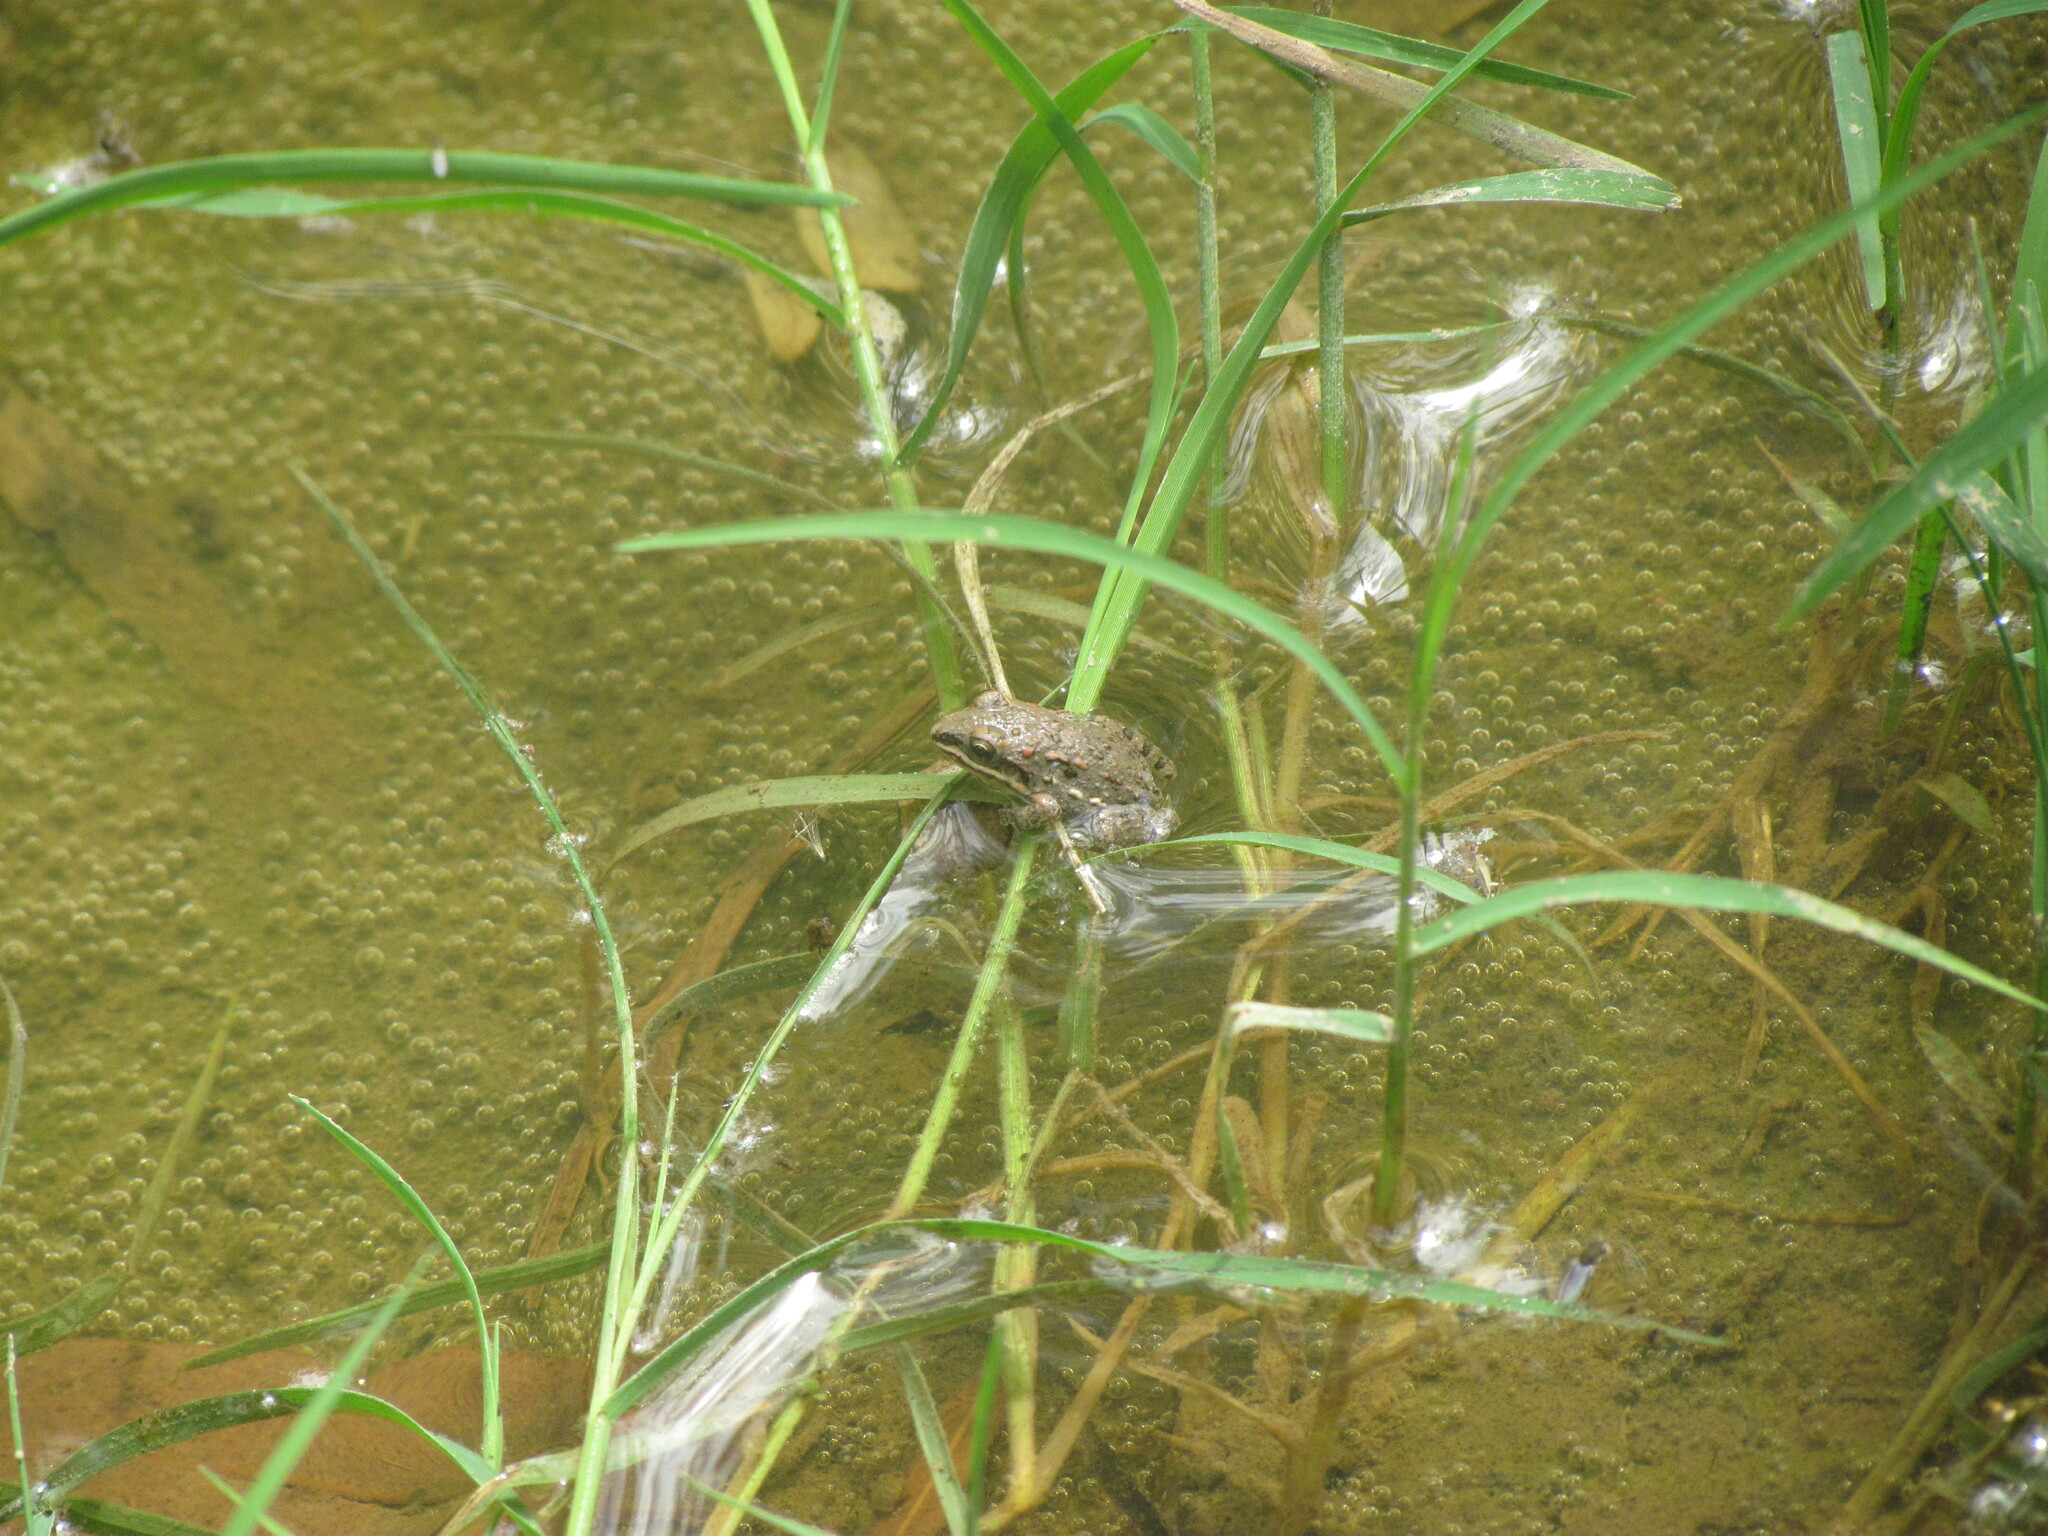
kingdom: Animalia
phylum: Chordata
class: Amphibia
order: Anura
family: Leptodactylidae
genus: Leptodactylus
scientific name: Leptodactylus latinasus
